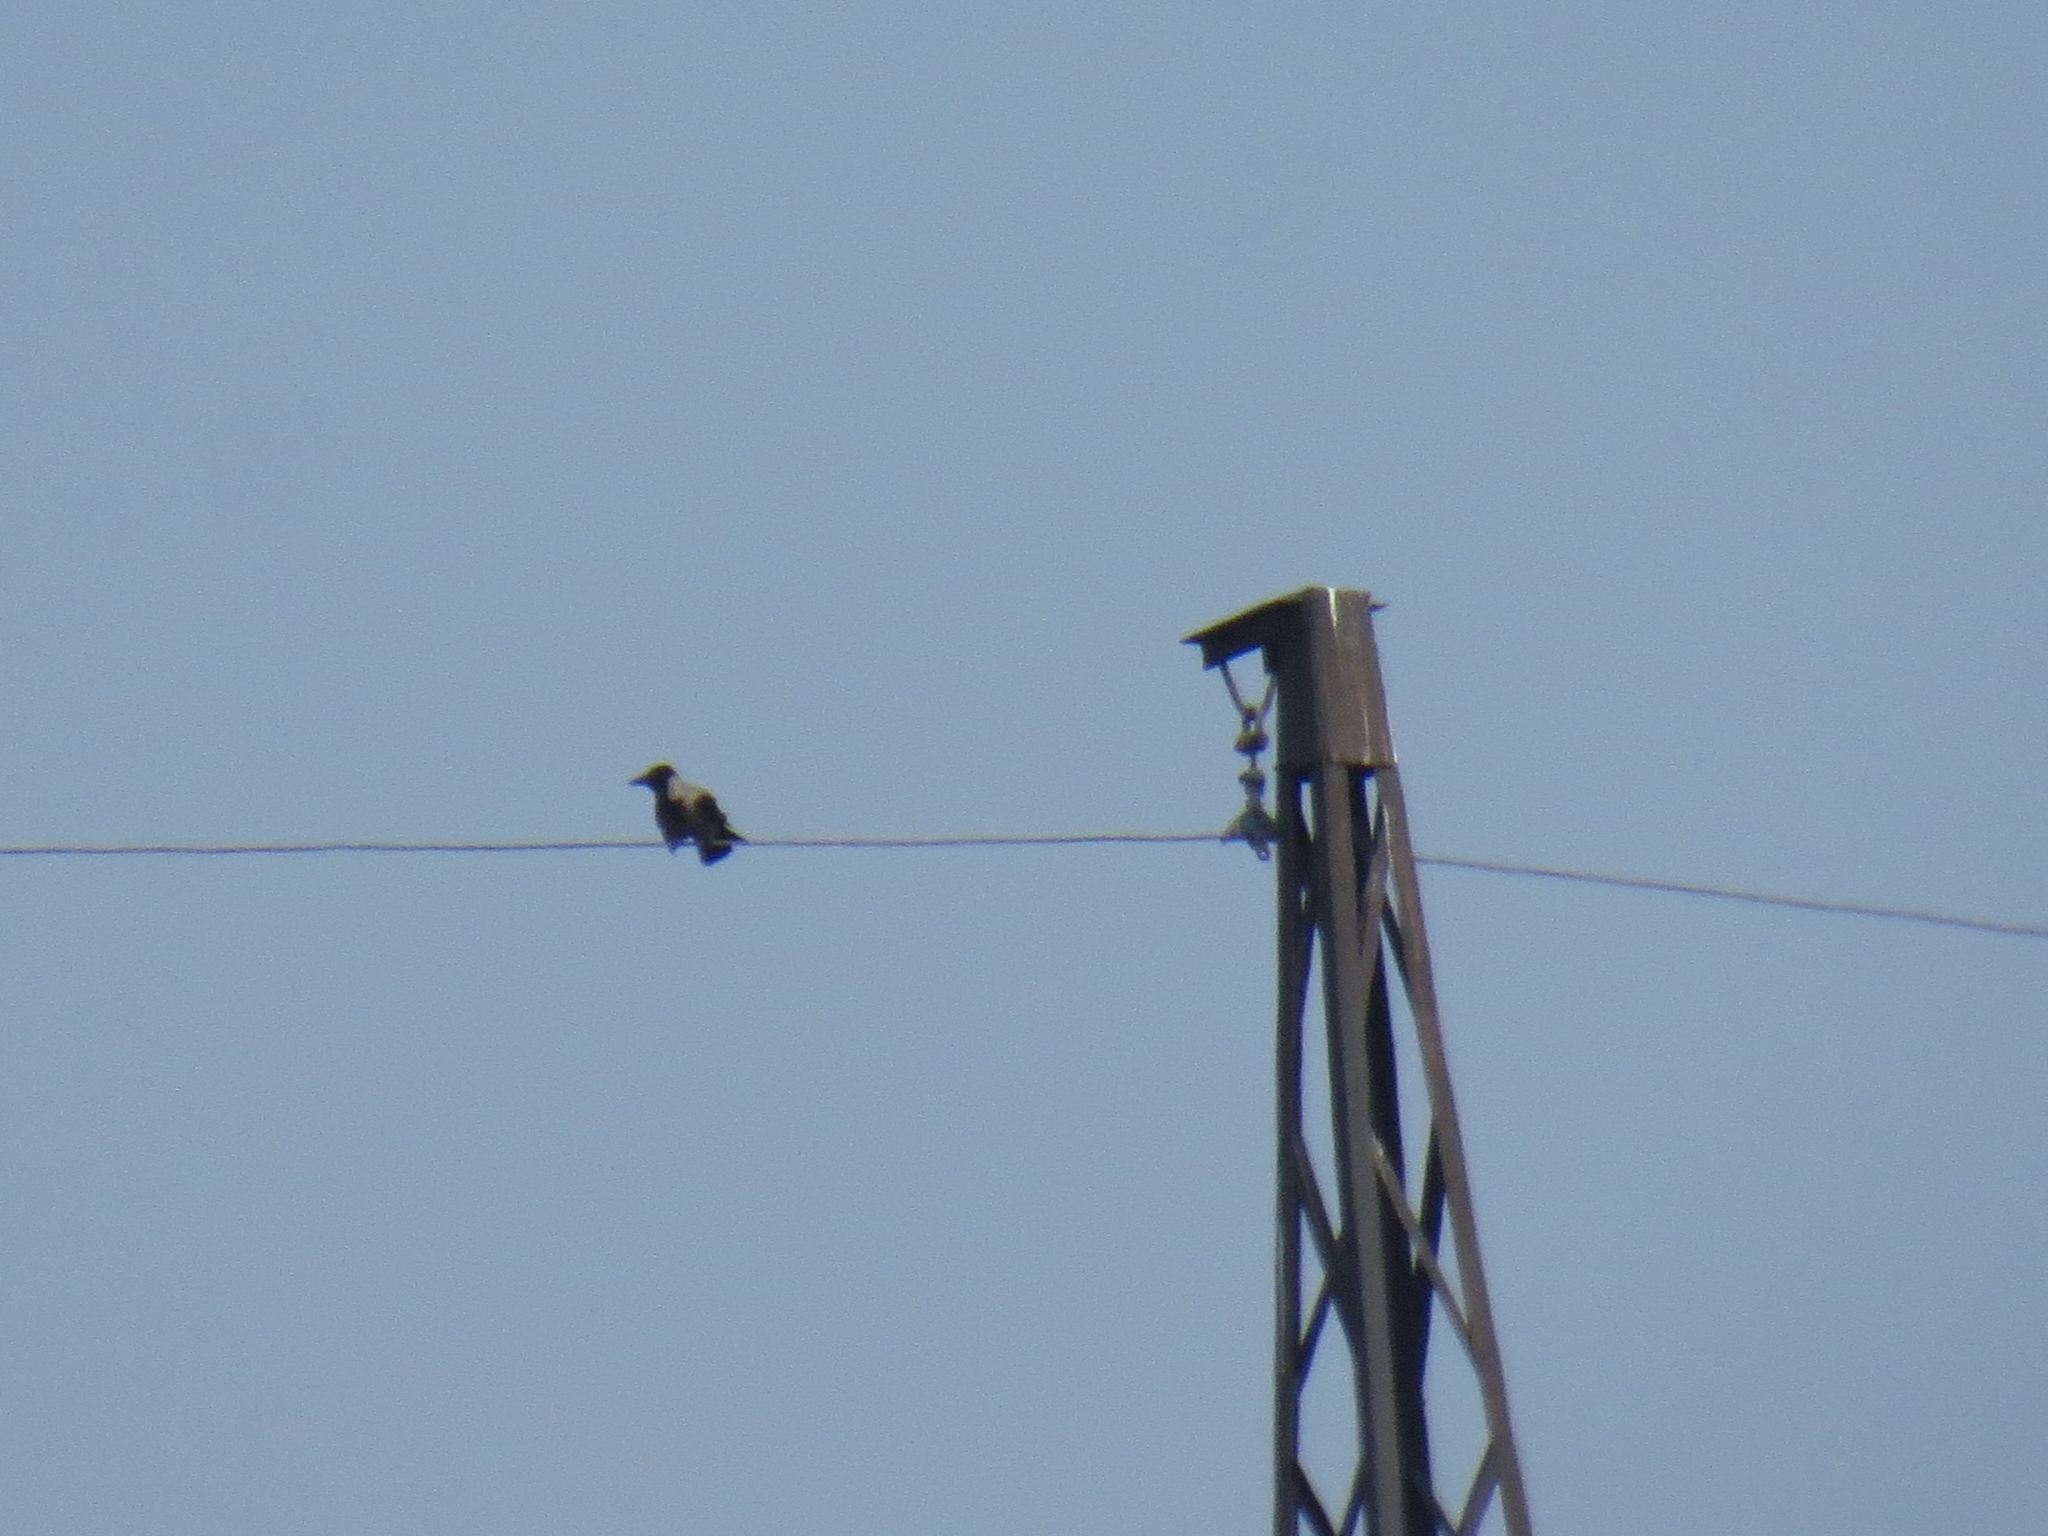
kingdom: Animalia
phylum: Chordata
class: Aves
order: Passeriformes
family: Corvidae
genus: Corvus
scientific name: Corvus cornix
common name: Hooded crow
